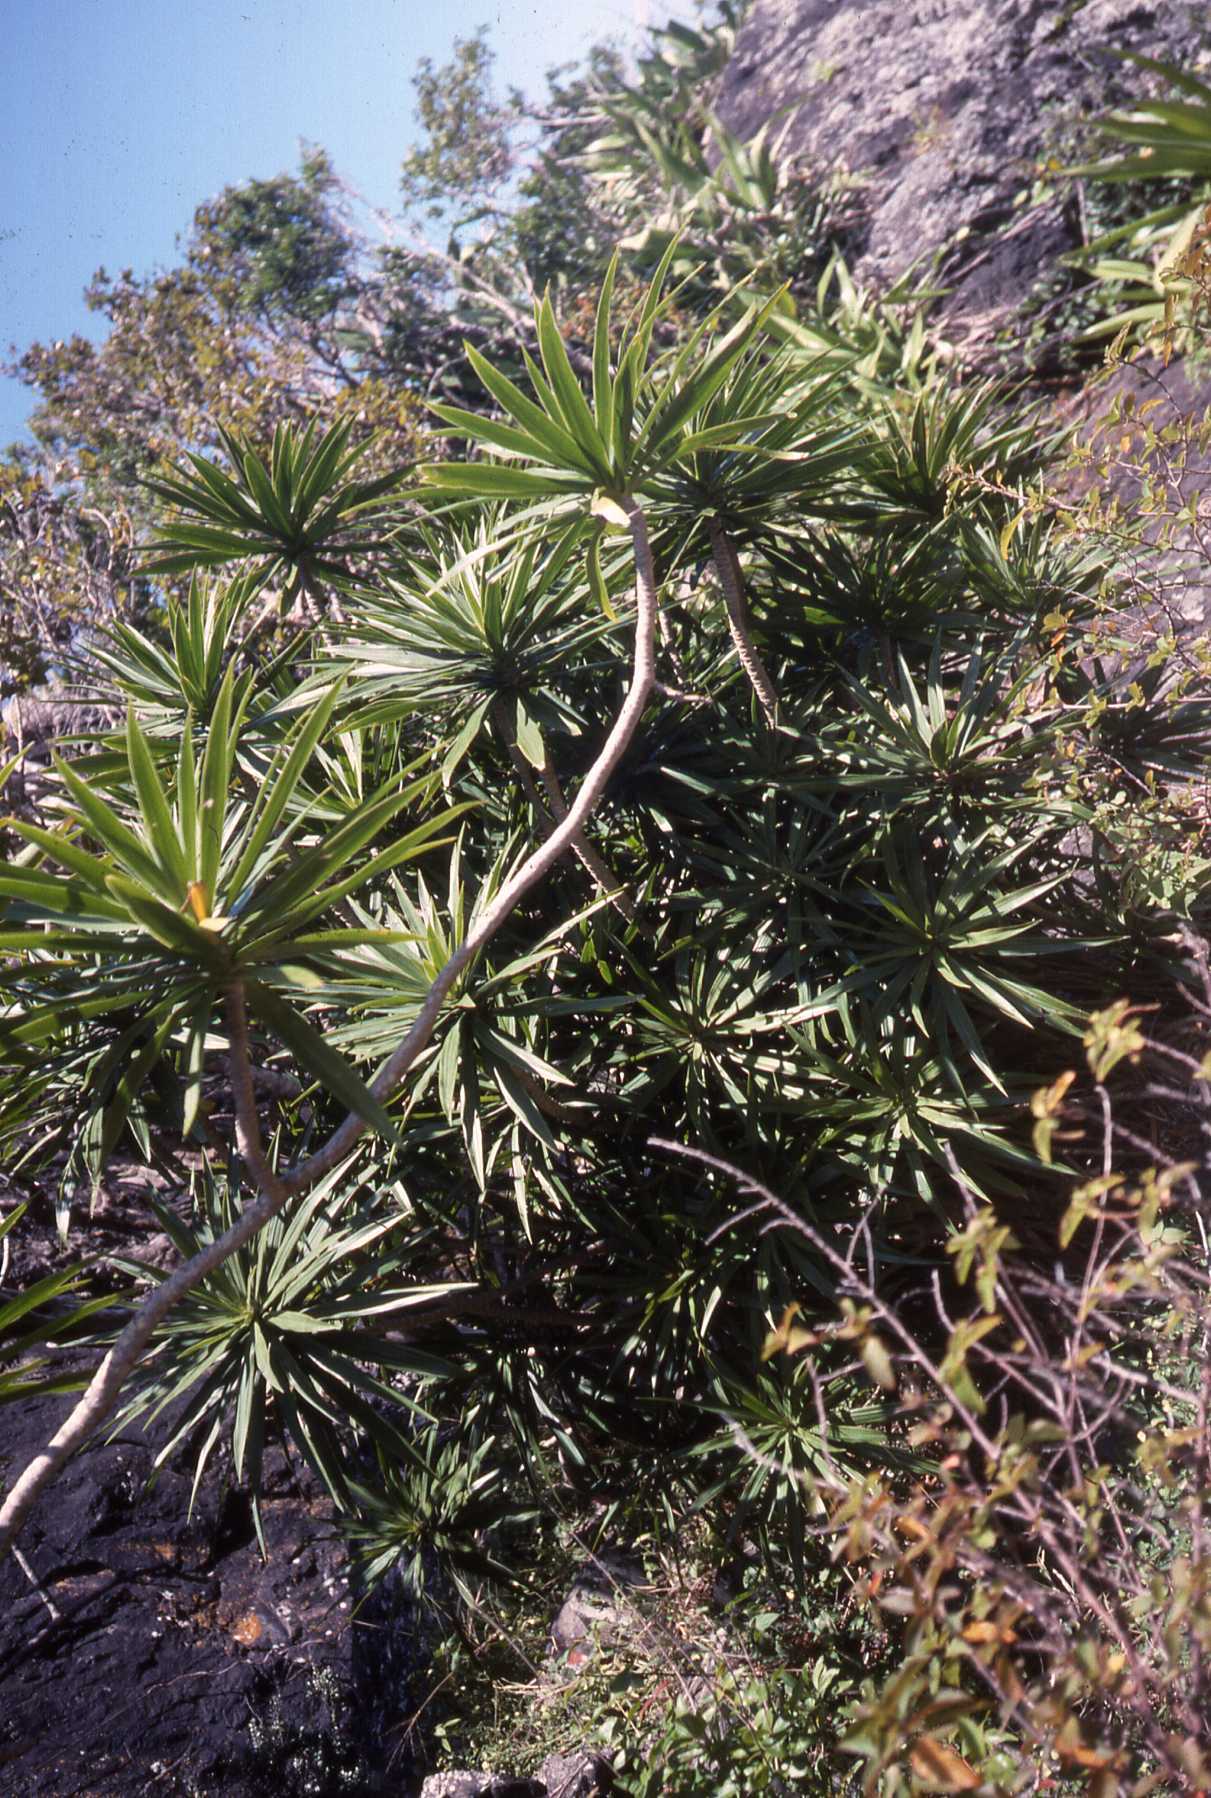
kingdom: Plantae
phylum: Tracheophyta
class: Liliopsida
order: Asparagales
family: Asparagaceae
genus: Dracaena
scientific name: Dracaena reflexa
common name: Song-of-india
